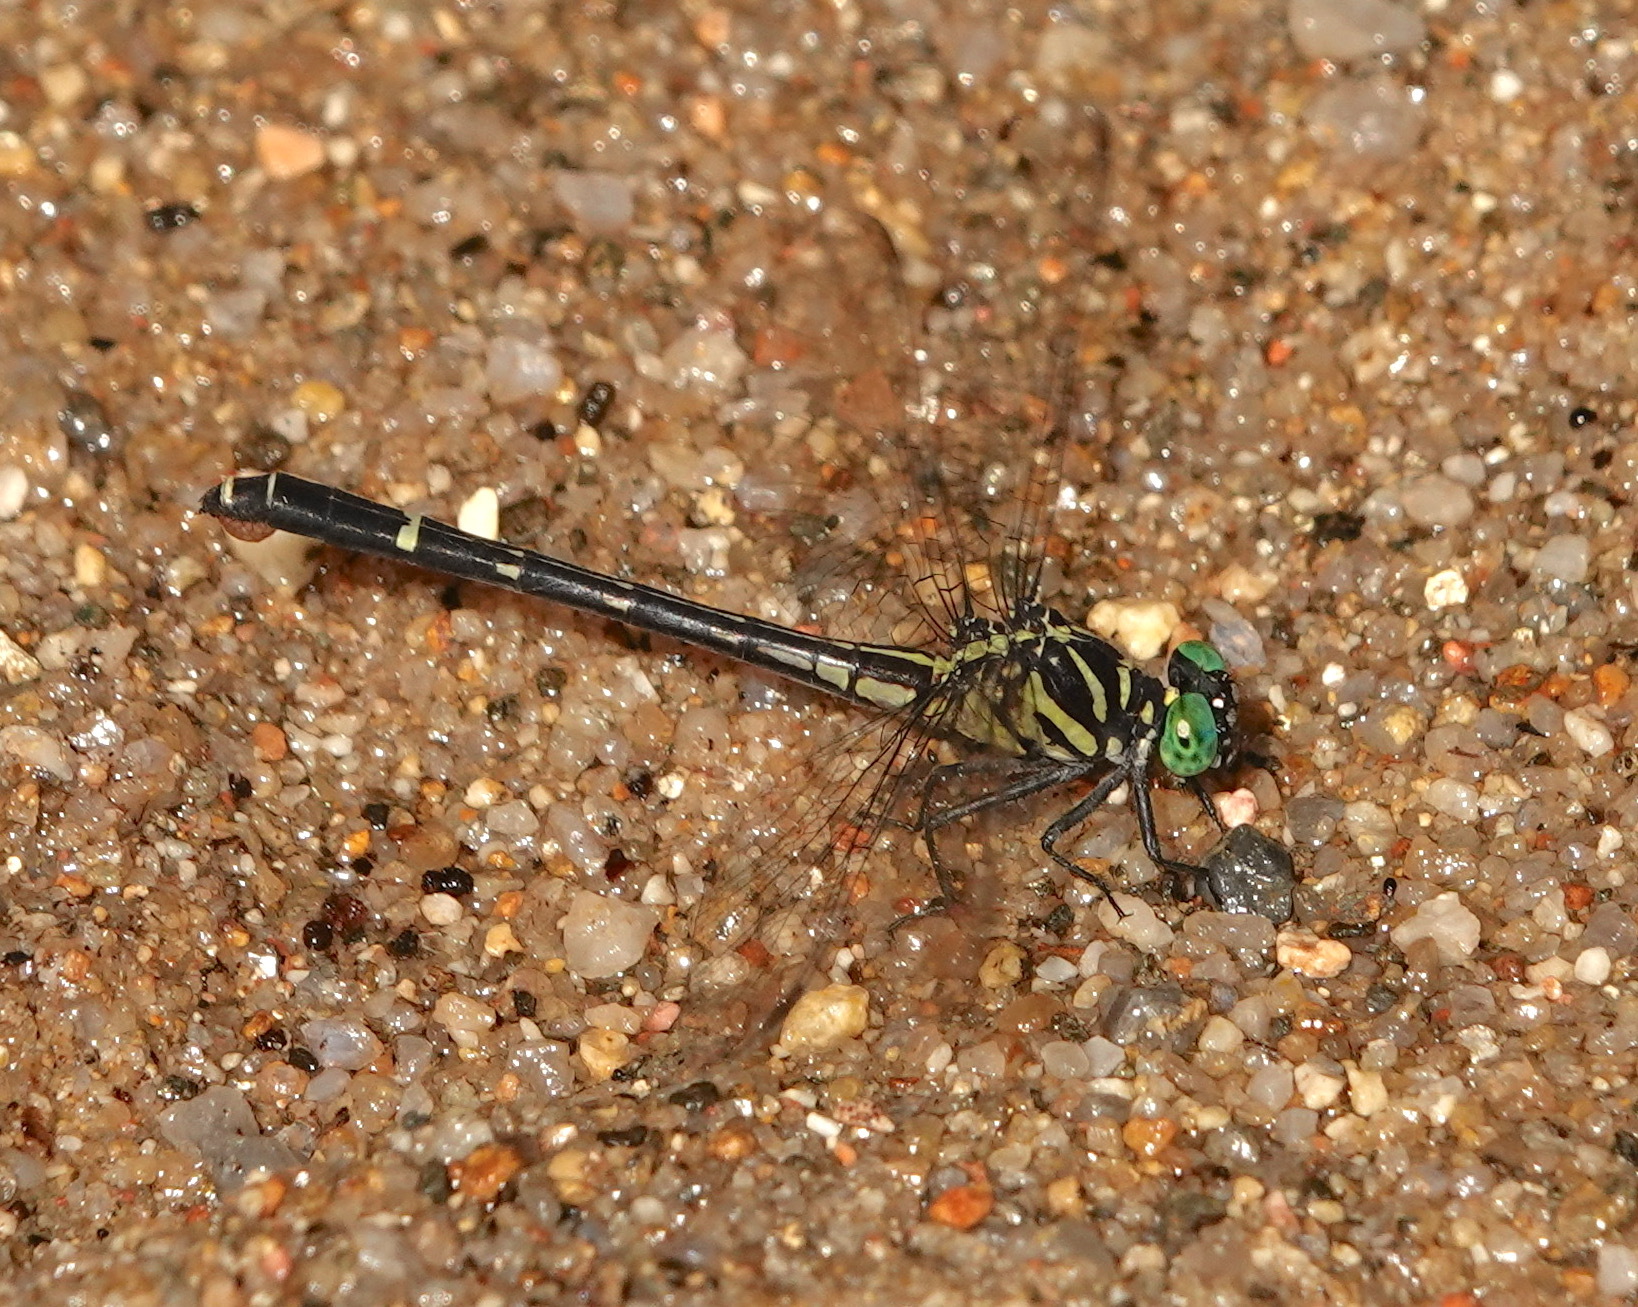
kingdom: Animalia
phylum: Arthropoda
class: Insecta
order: Odonata
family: Gomphidae
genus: Burmagomphus
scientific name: Burmagomphus divaricatus
